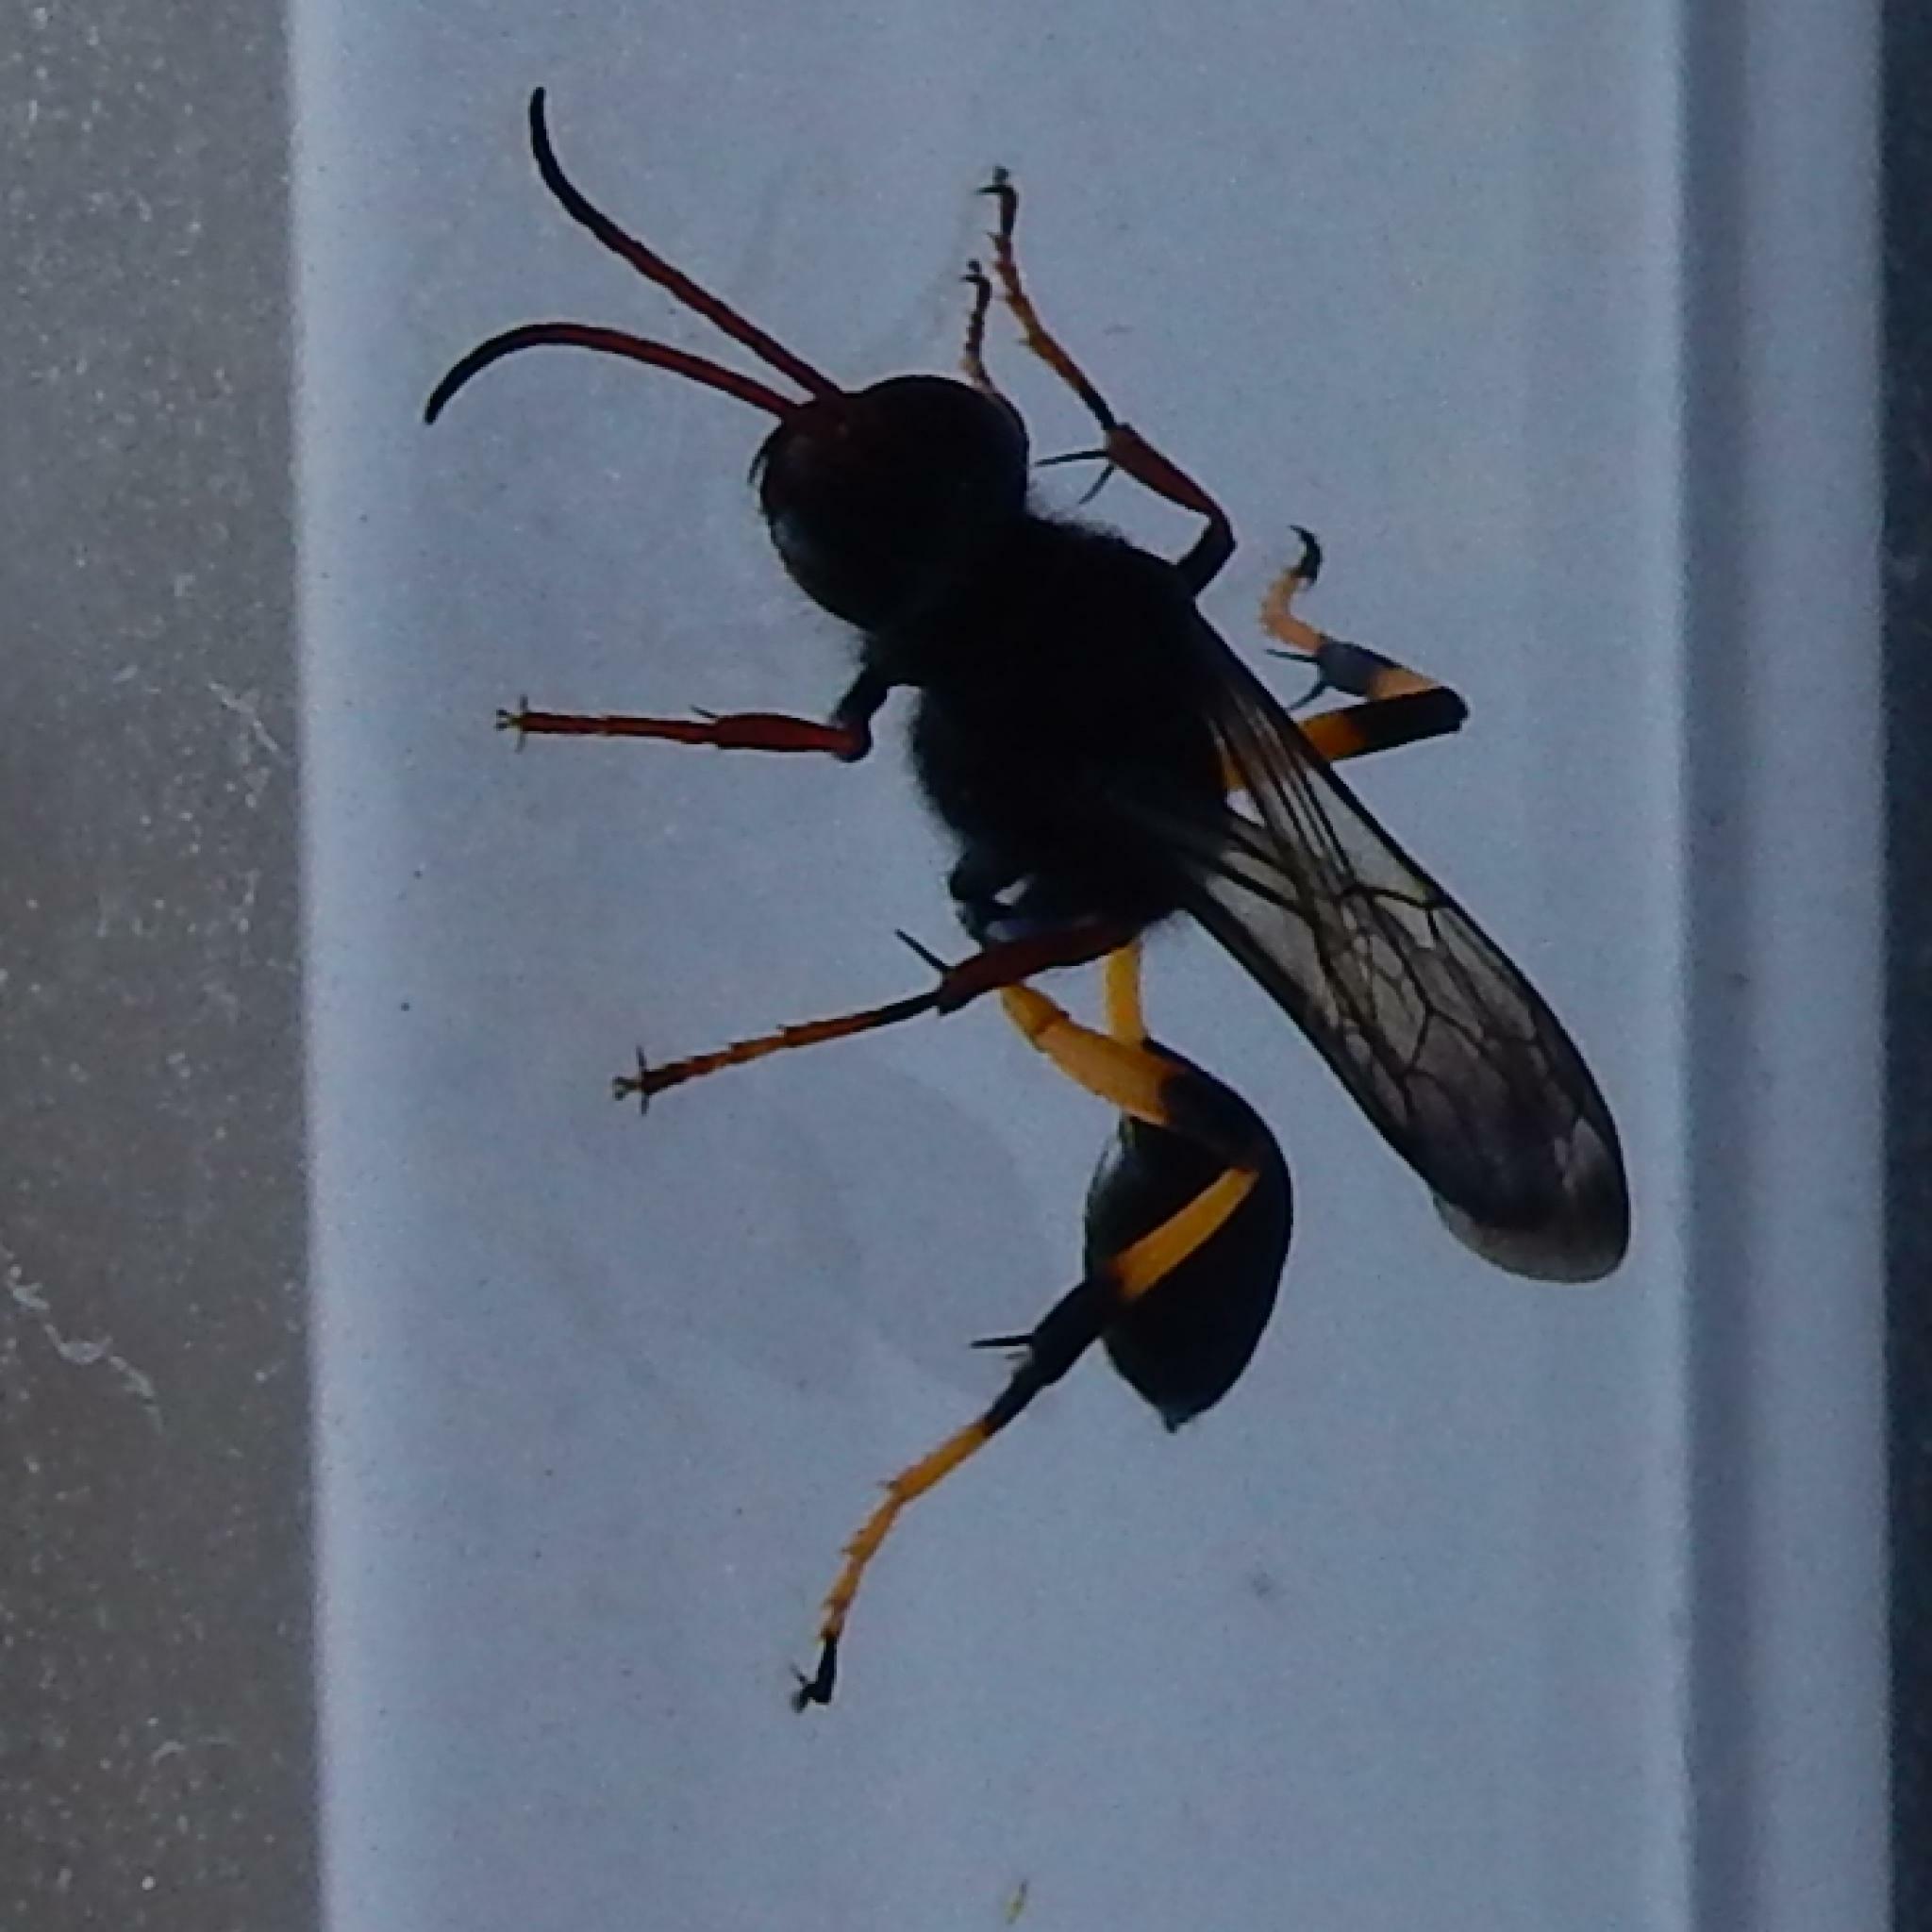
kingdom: Animalia
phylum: Arthropoda
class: Insecta
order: Hymenoptera
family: Sphecidae
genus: Sceliphron
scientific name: Sceliphron spirifex
